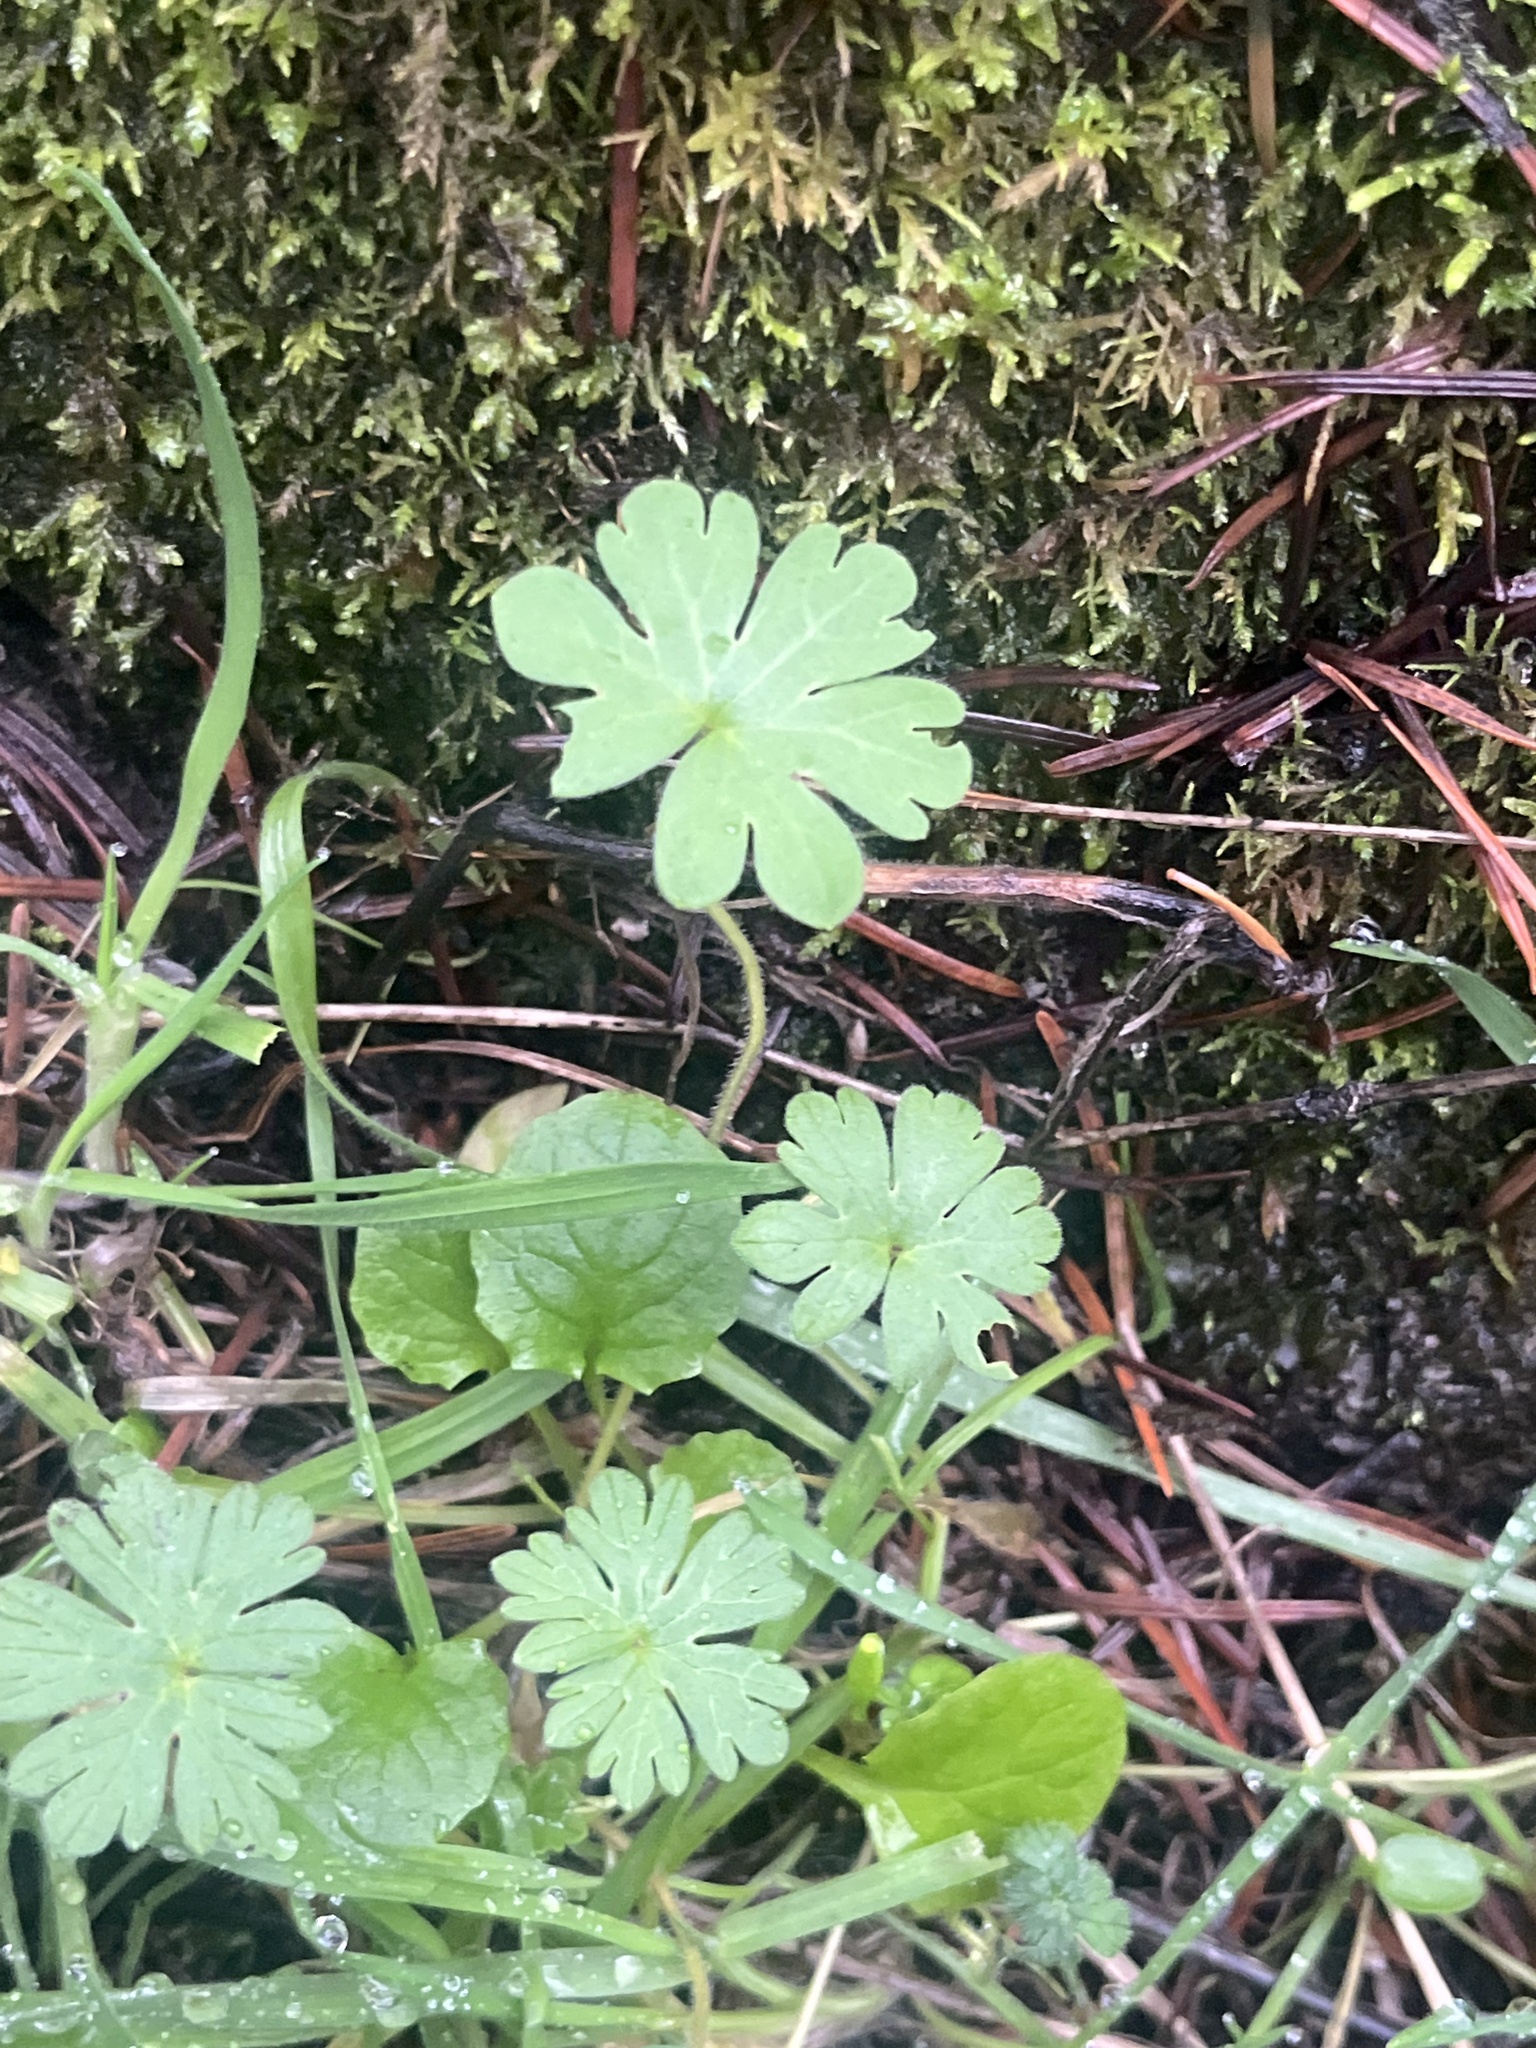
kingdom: Plantae
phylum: Tracheophyta
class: Magnoliopsida
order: Geraniales
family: Geraniaceae
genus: Geranium
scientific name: Geranium molle
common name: Dove's-foot crane's-bill
